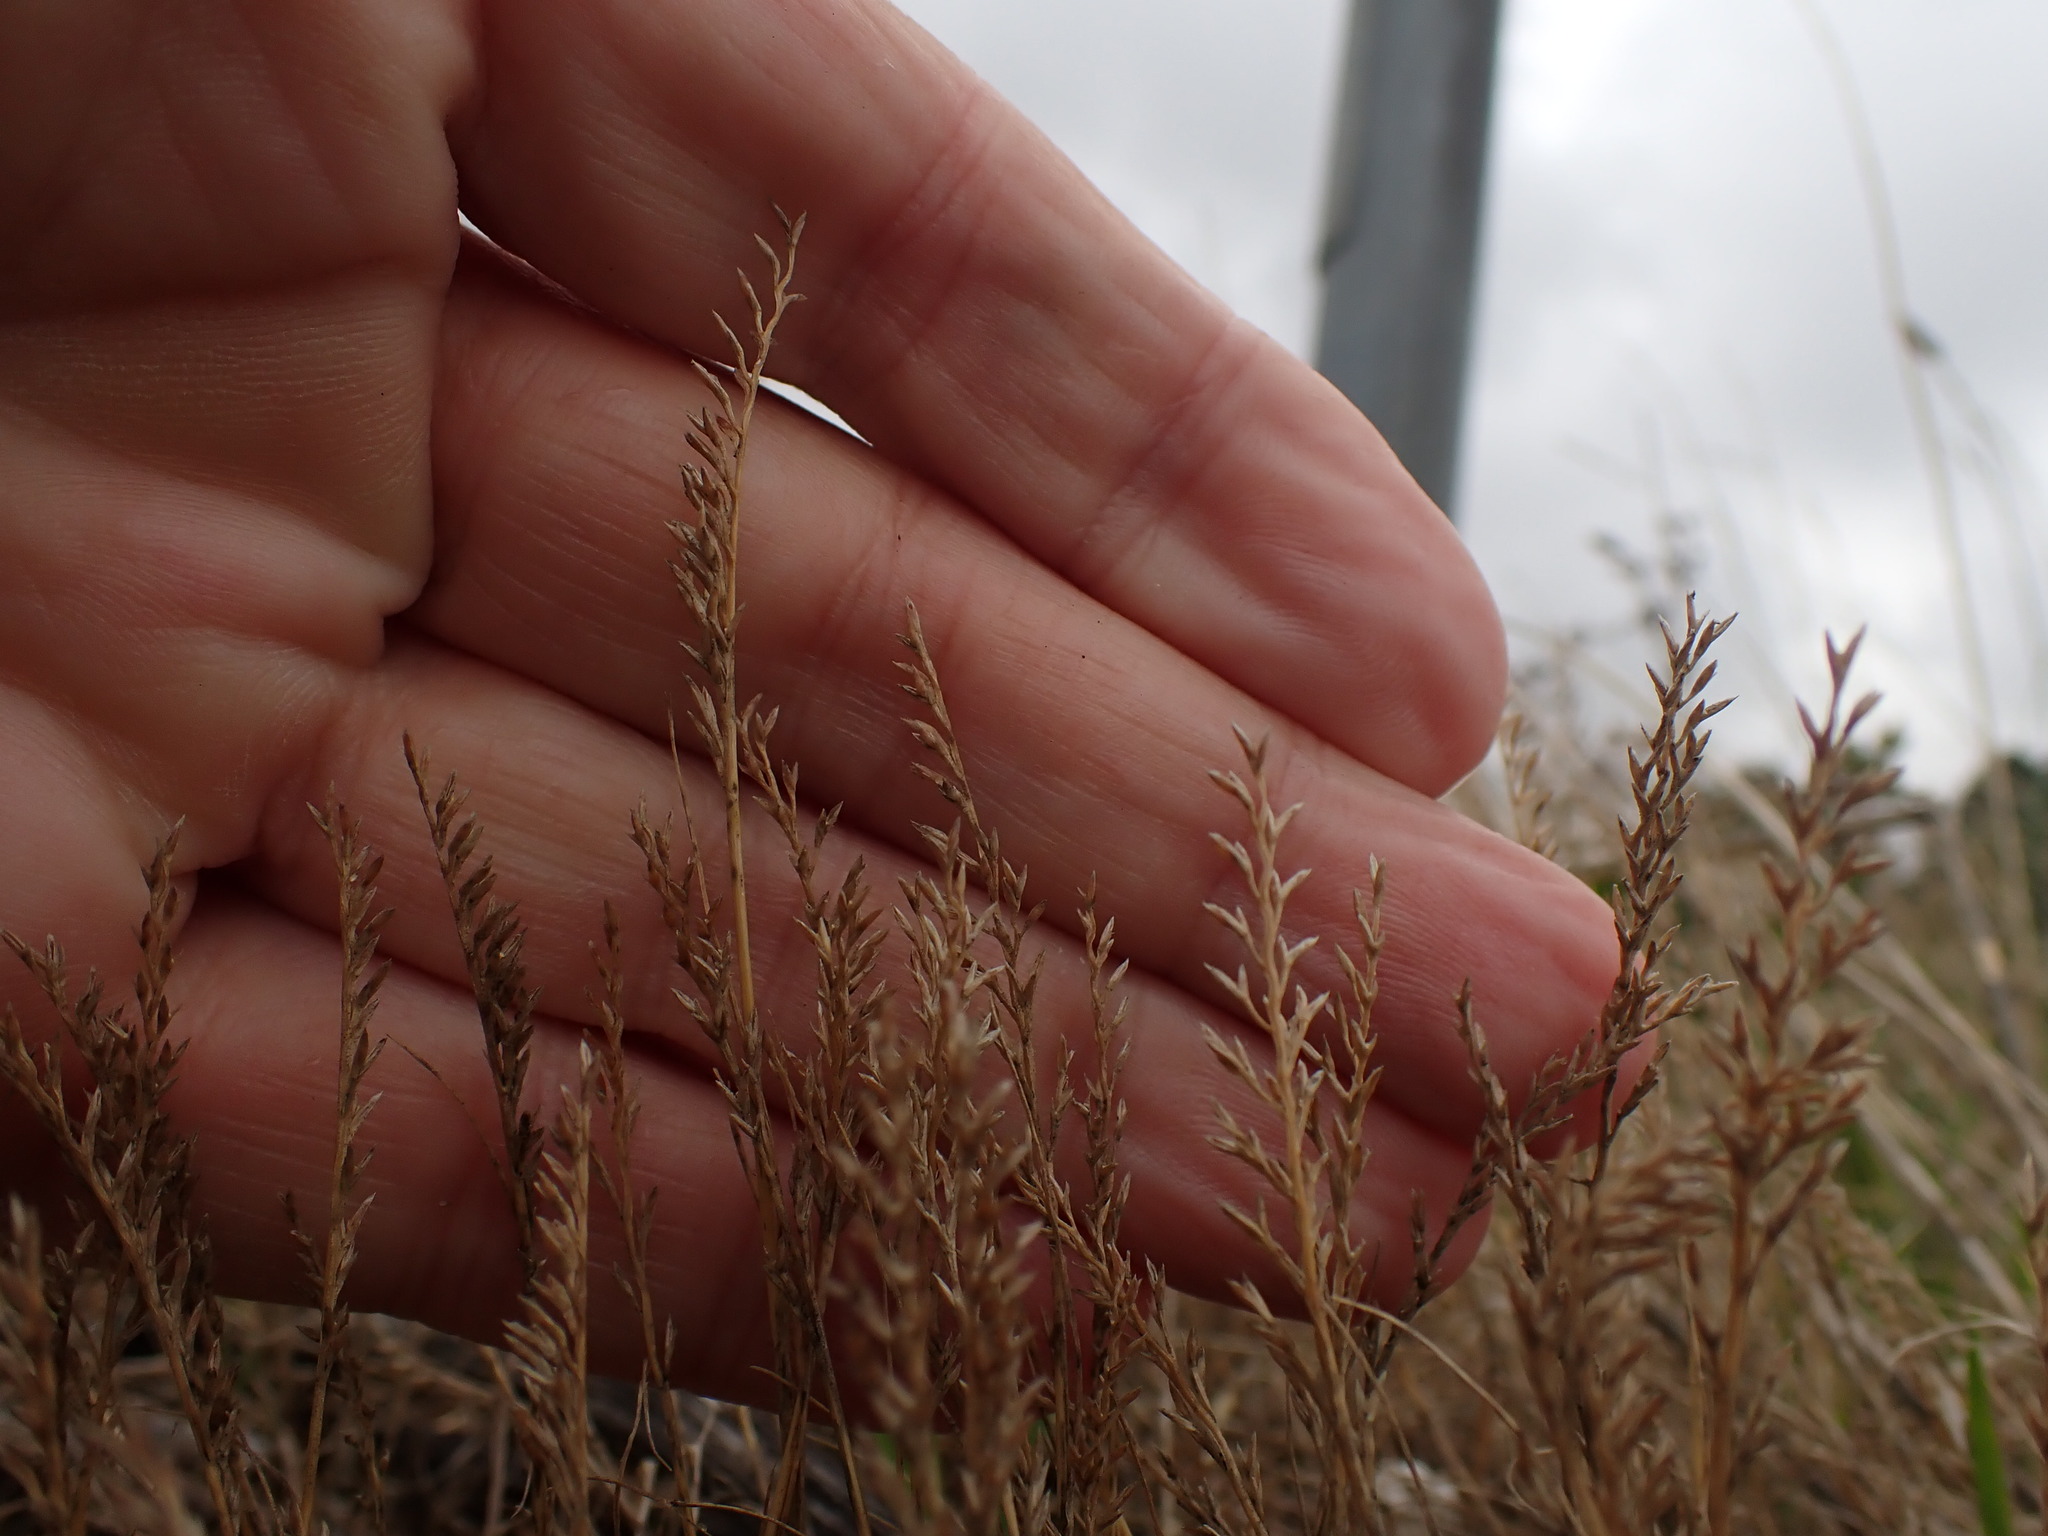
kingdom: Plantae
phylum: Tracheophyta
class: Liliopsida
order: Poales
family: Poaceae
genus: Catapodium
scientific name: Catapodium rigidum
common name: Fern-grass
